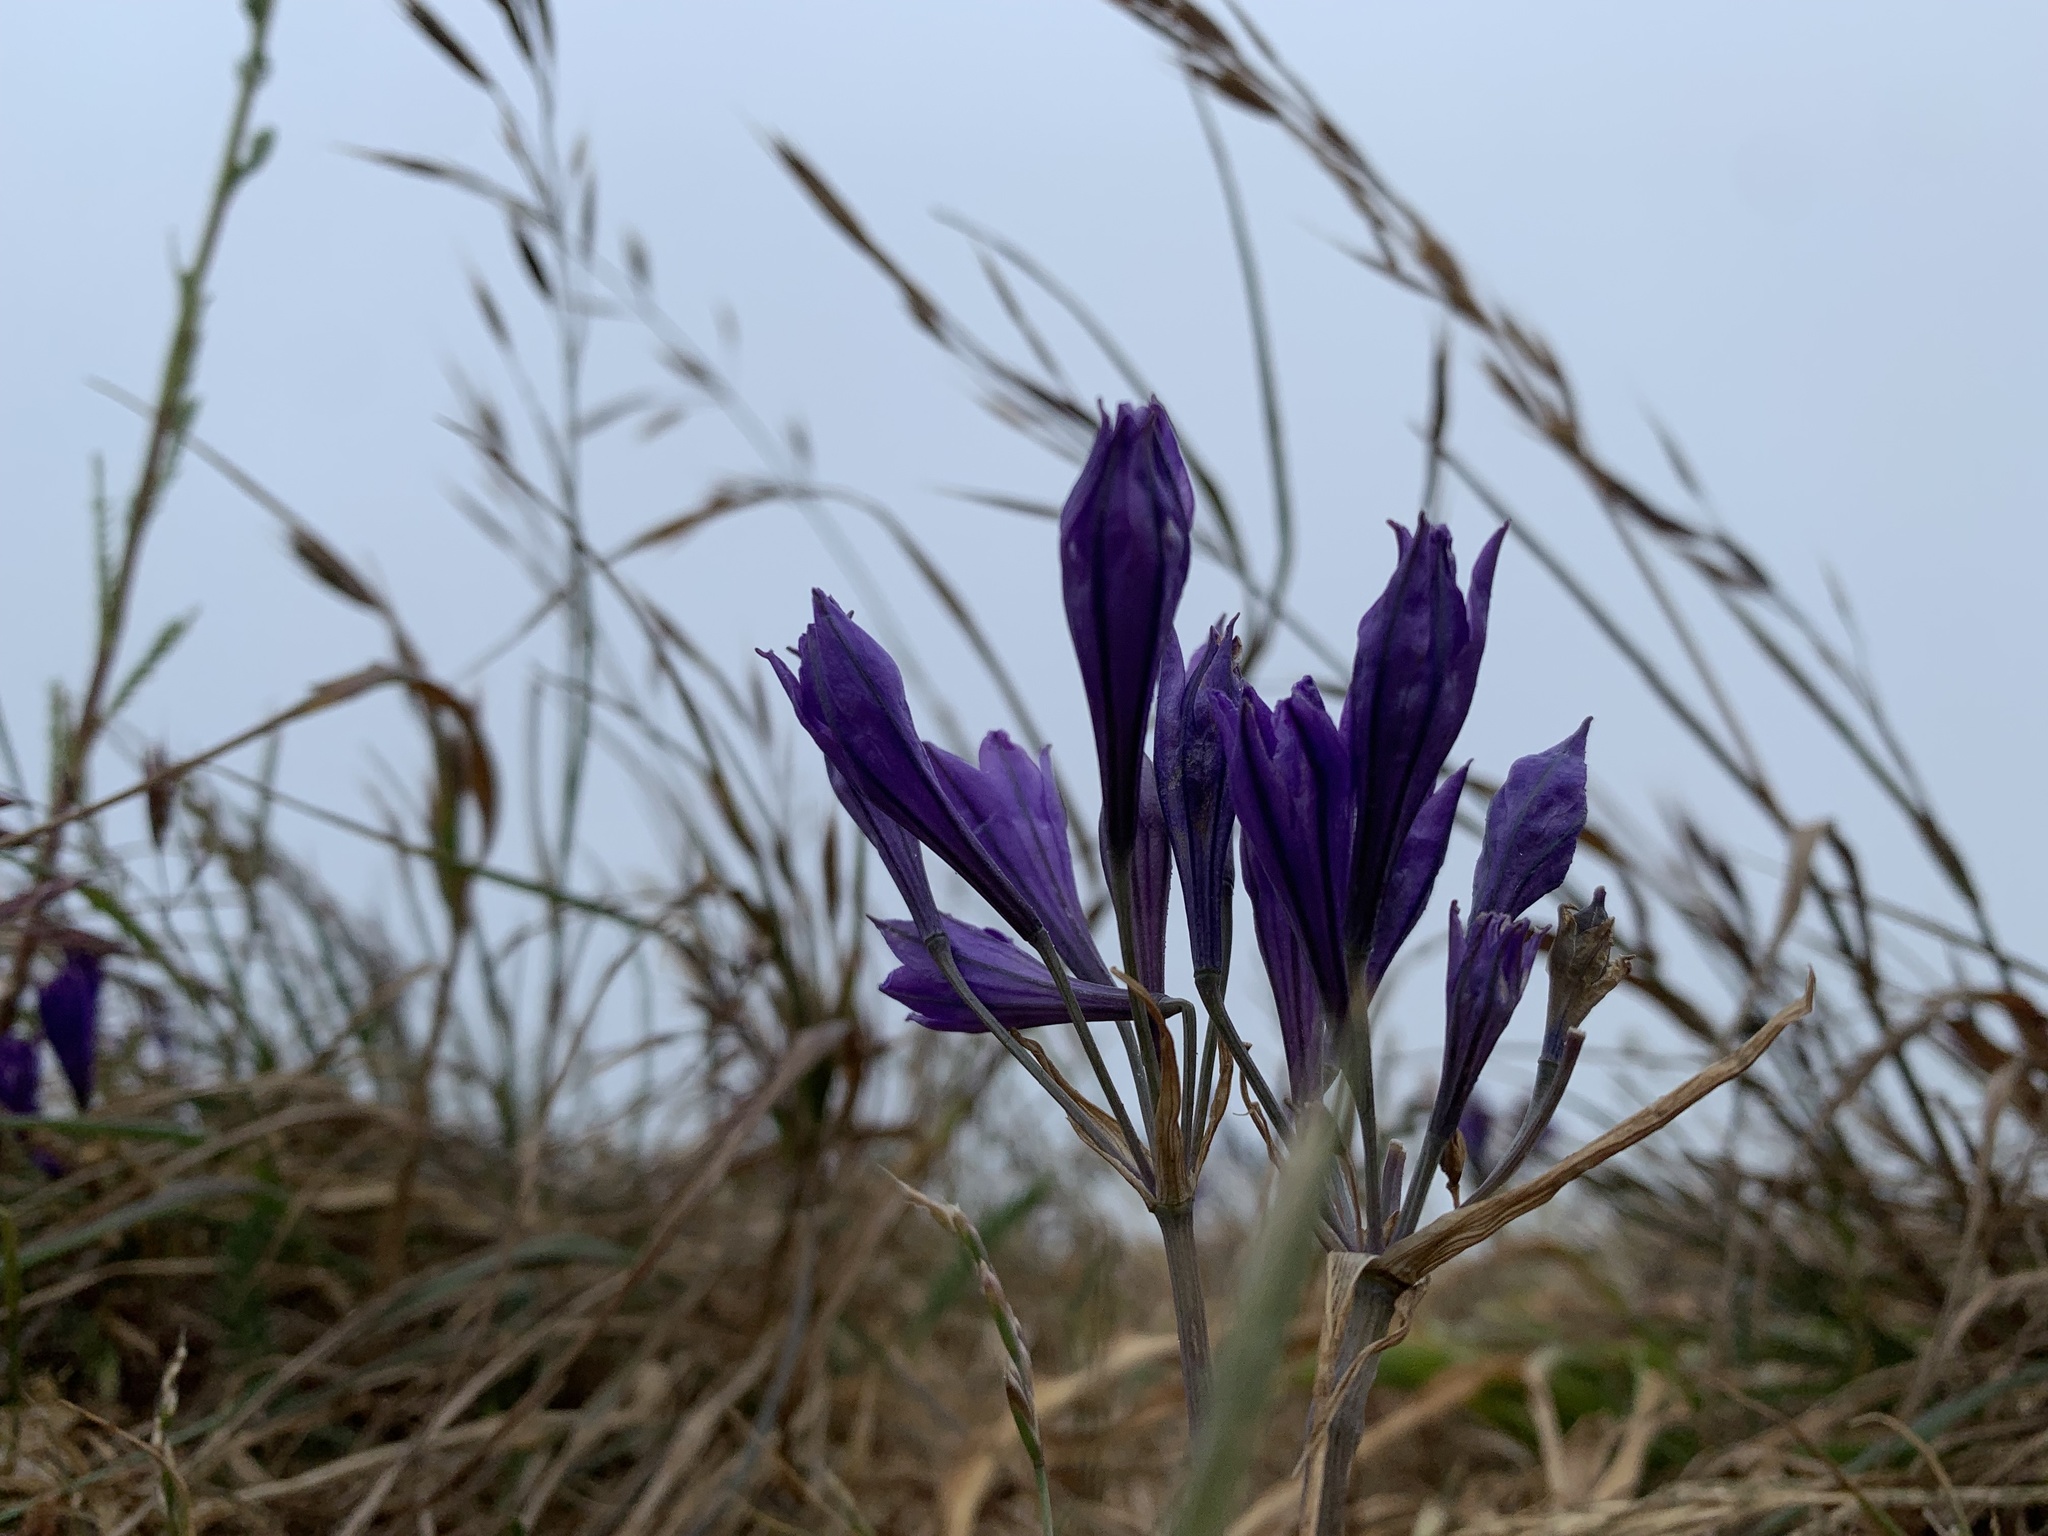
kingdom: Plantae
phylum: Tracheophyta
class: Liliopsida
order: Asparagales
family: Asparagaceae
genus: Triteleia
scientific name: Triteleia laxa
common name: Triplet-lily
